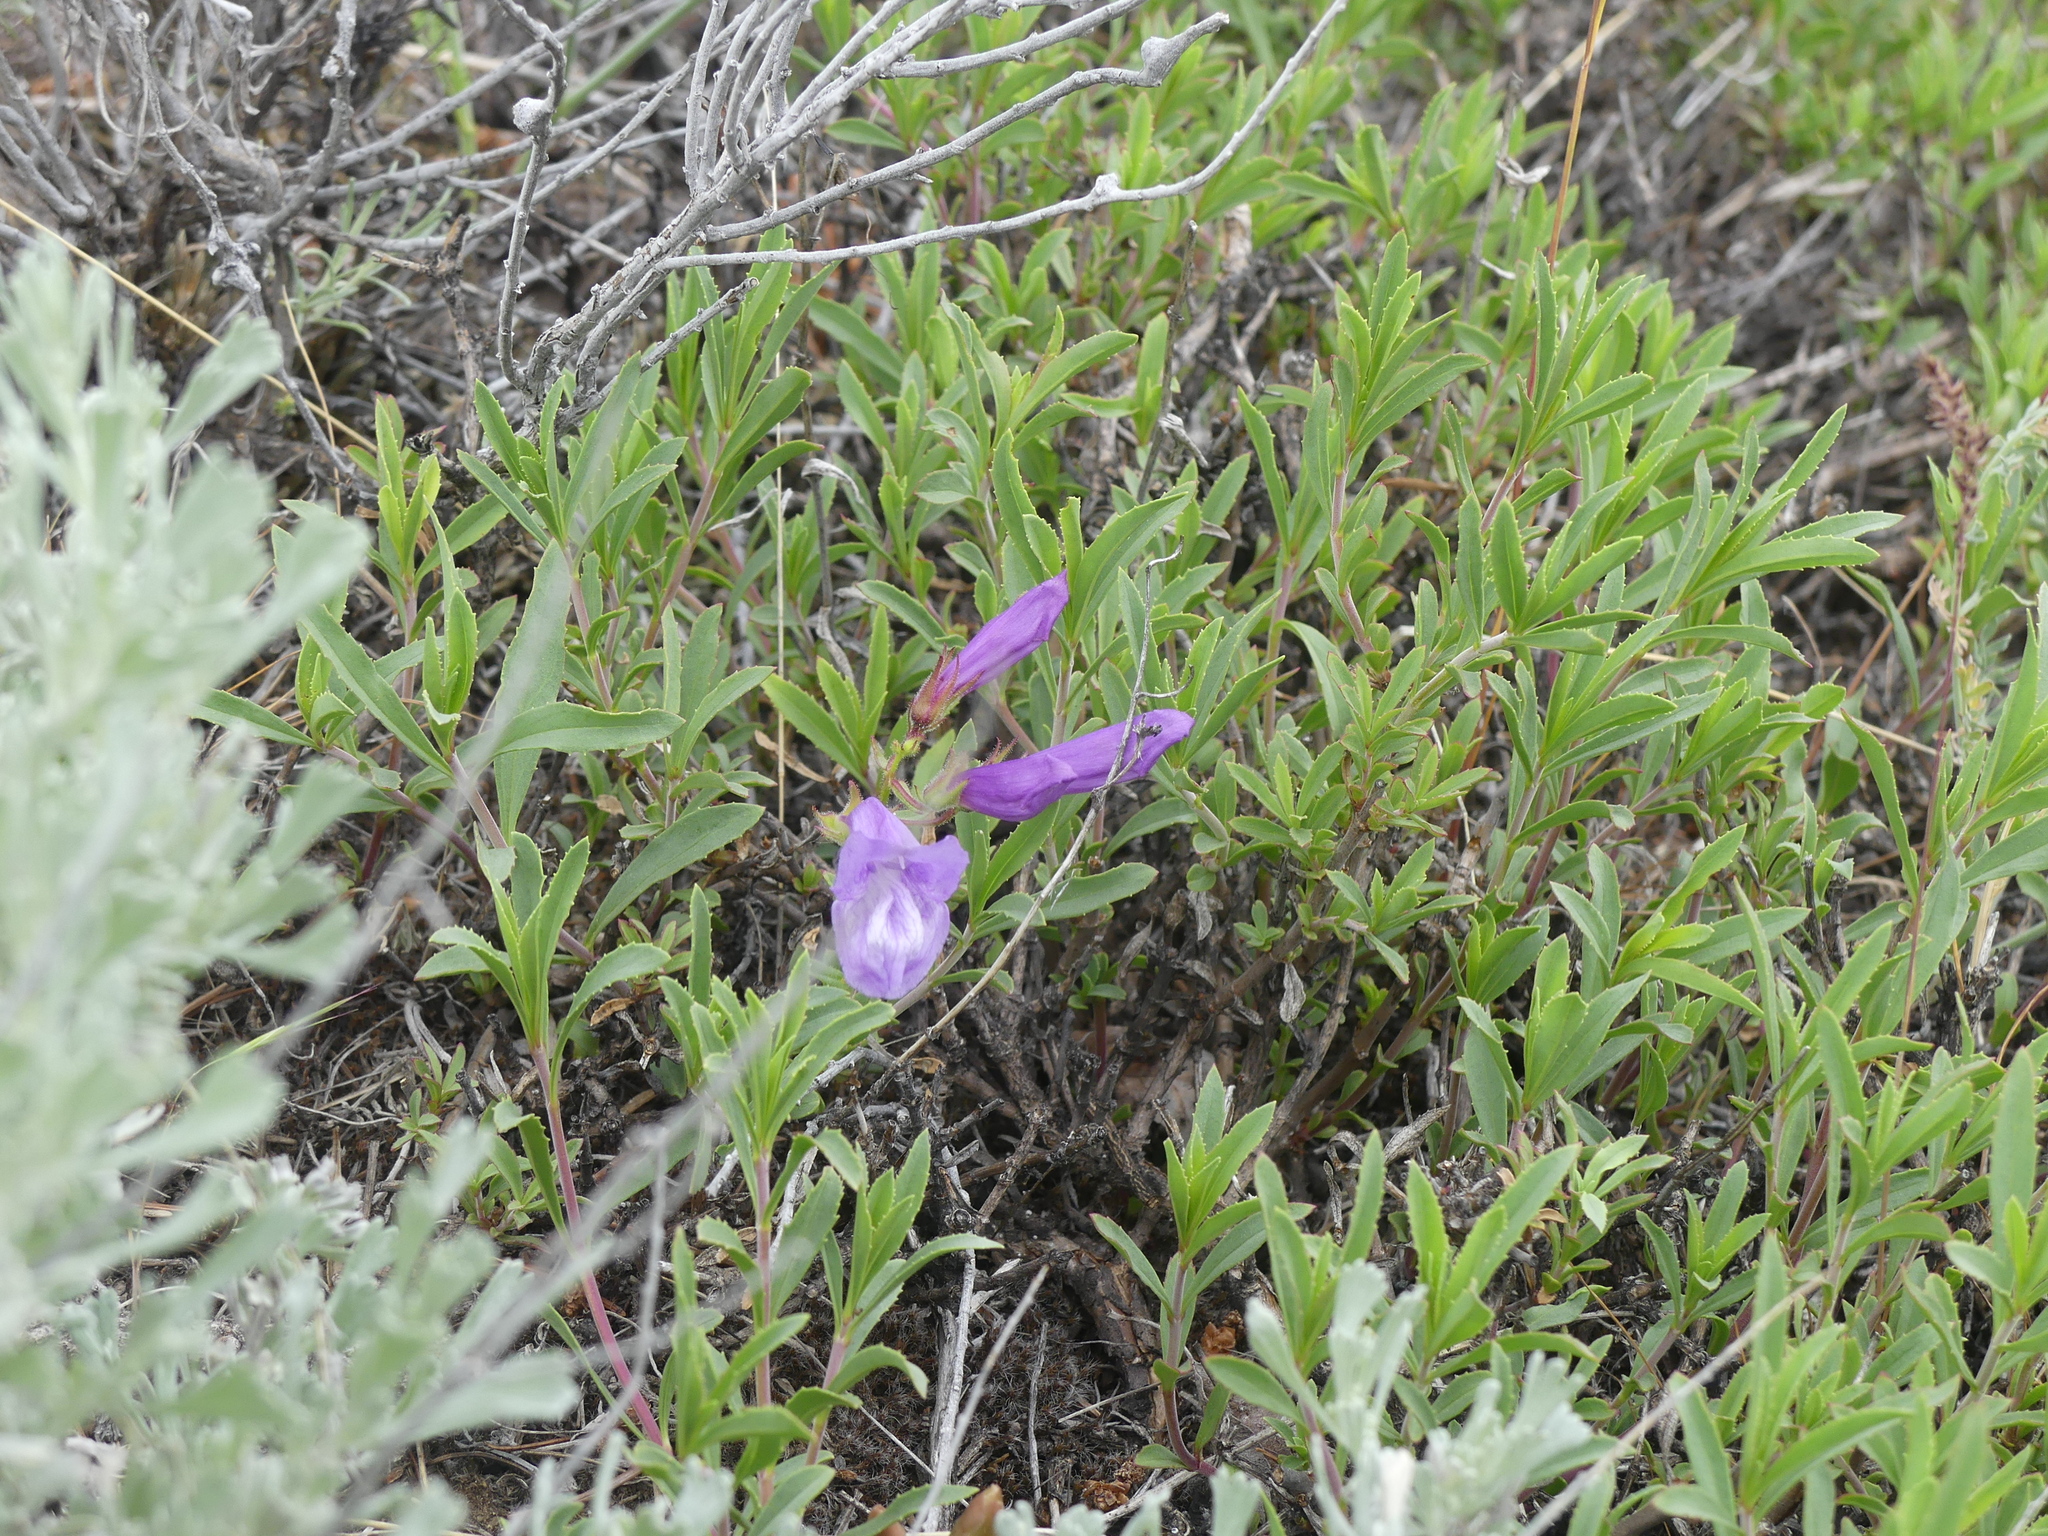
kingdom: Plantae
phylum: Tracheophyta
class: Magnoliopsida
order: Lamiales
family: Plantaginaceae
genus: Penstemon
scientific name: Penstemon fruticosus
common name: Bush penstemon
